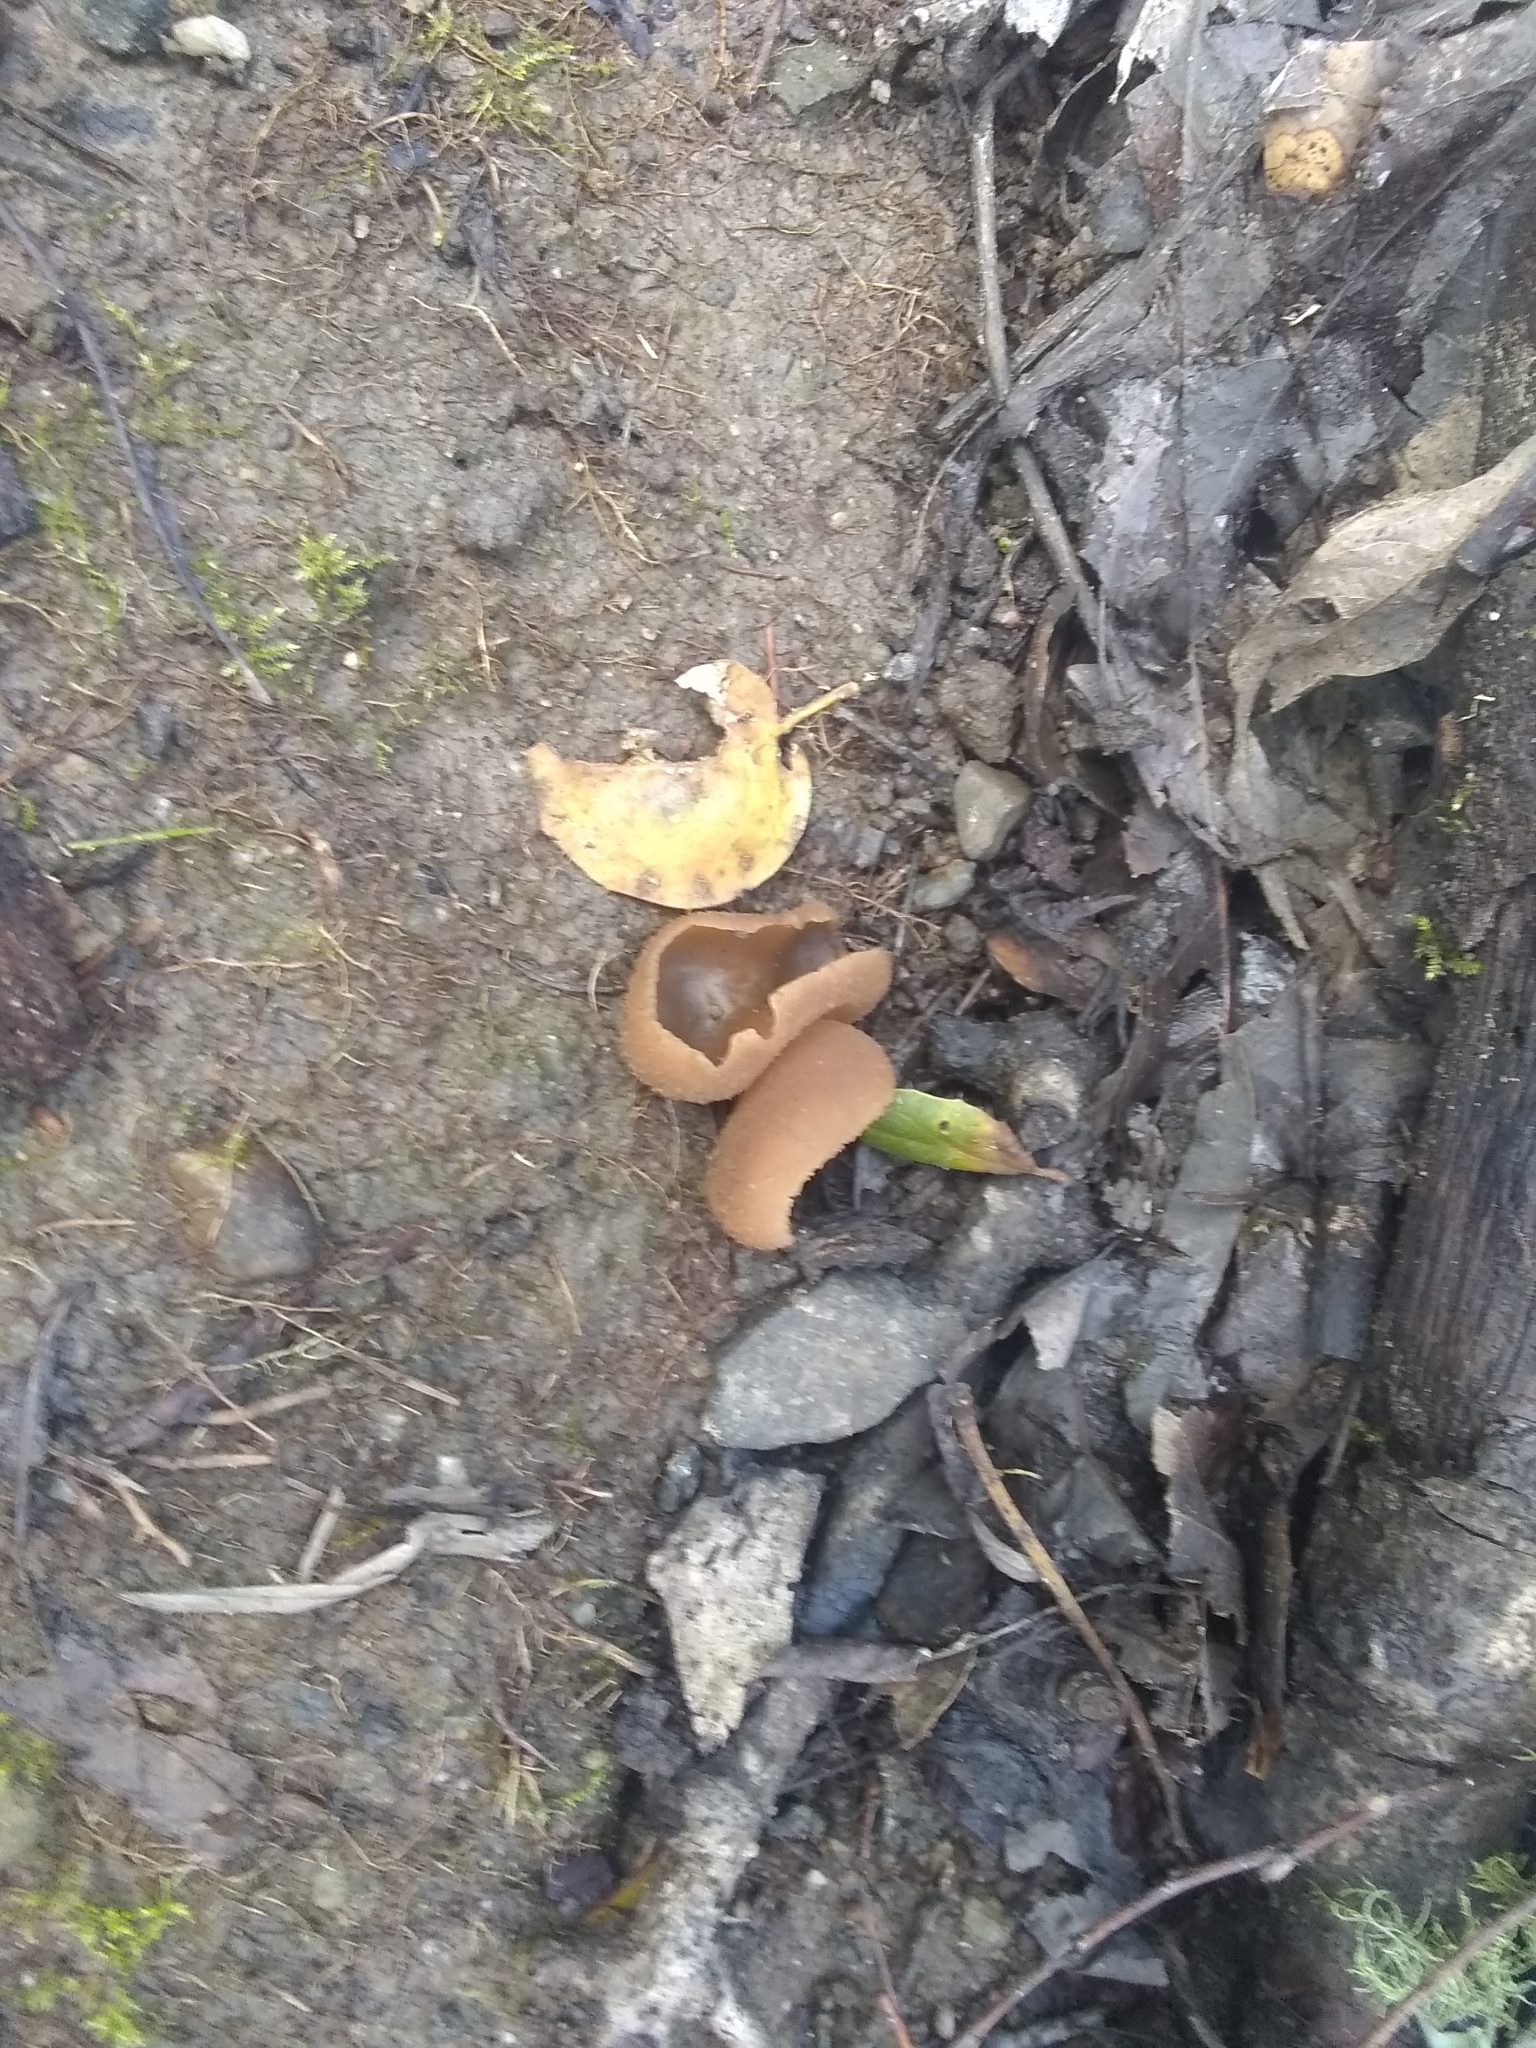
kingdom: Fungi
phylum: Ascomycota
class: Pezizomycetes
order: Pezizales
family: Pezizaceae
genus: Peziza
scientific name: Peziza varia
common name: Layered cup
